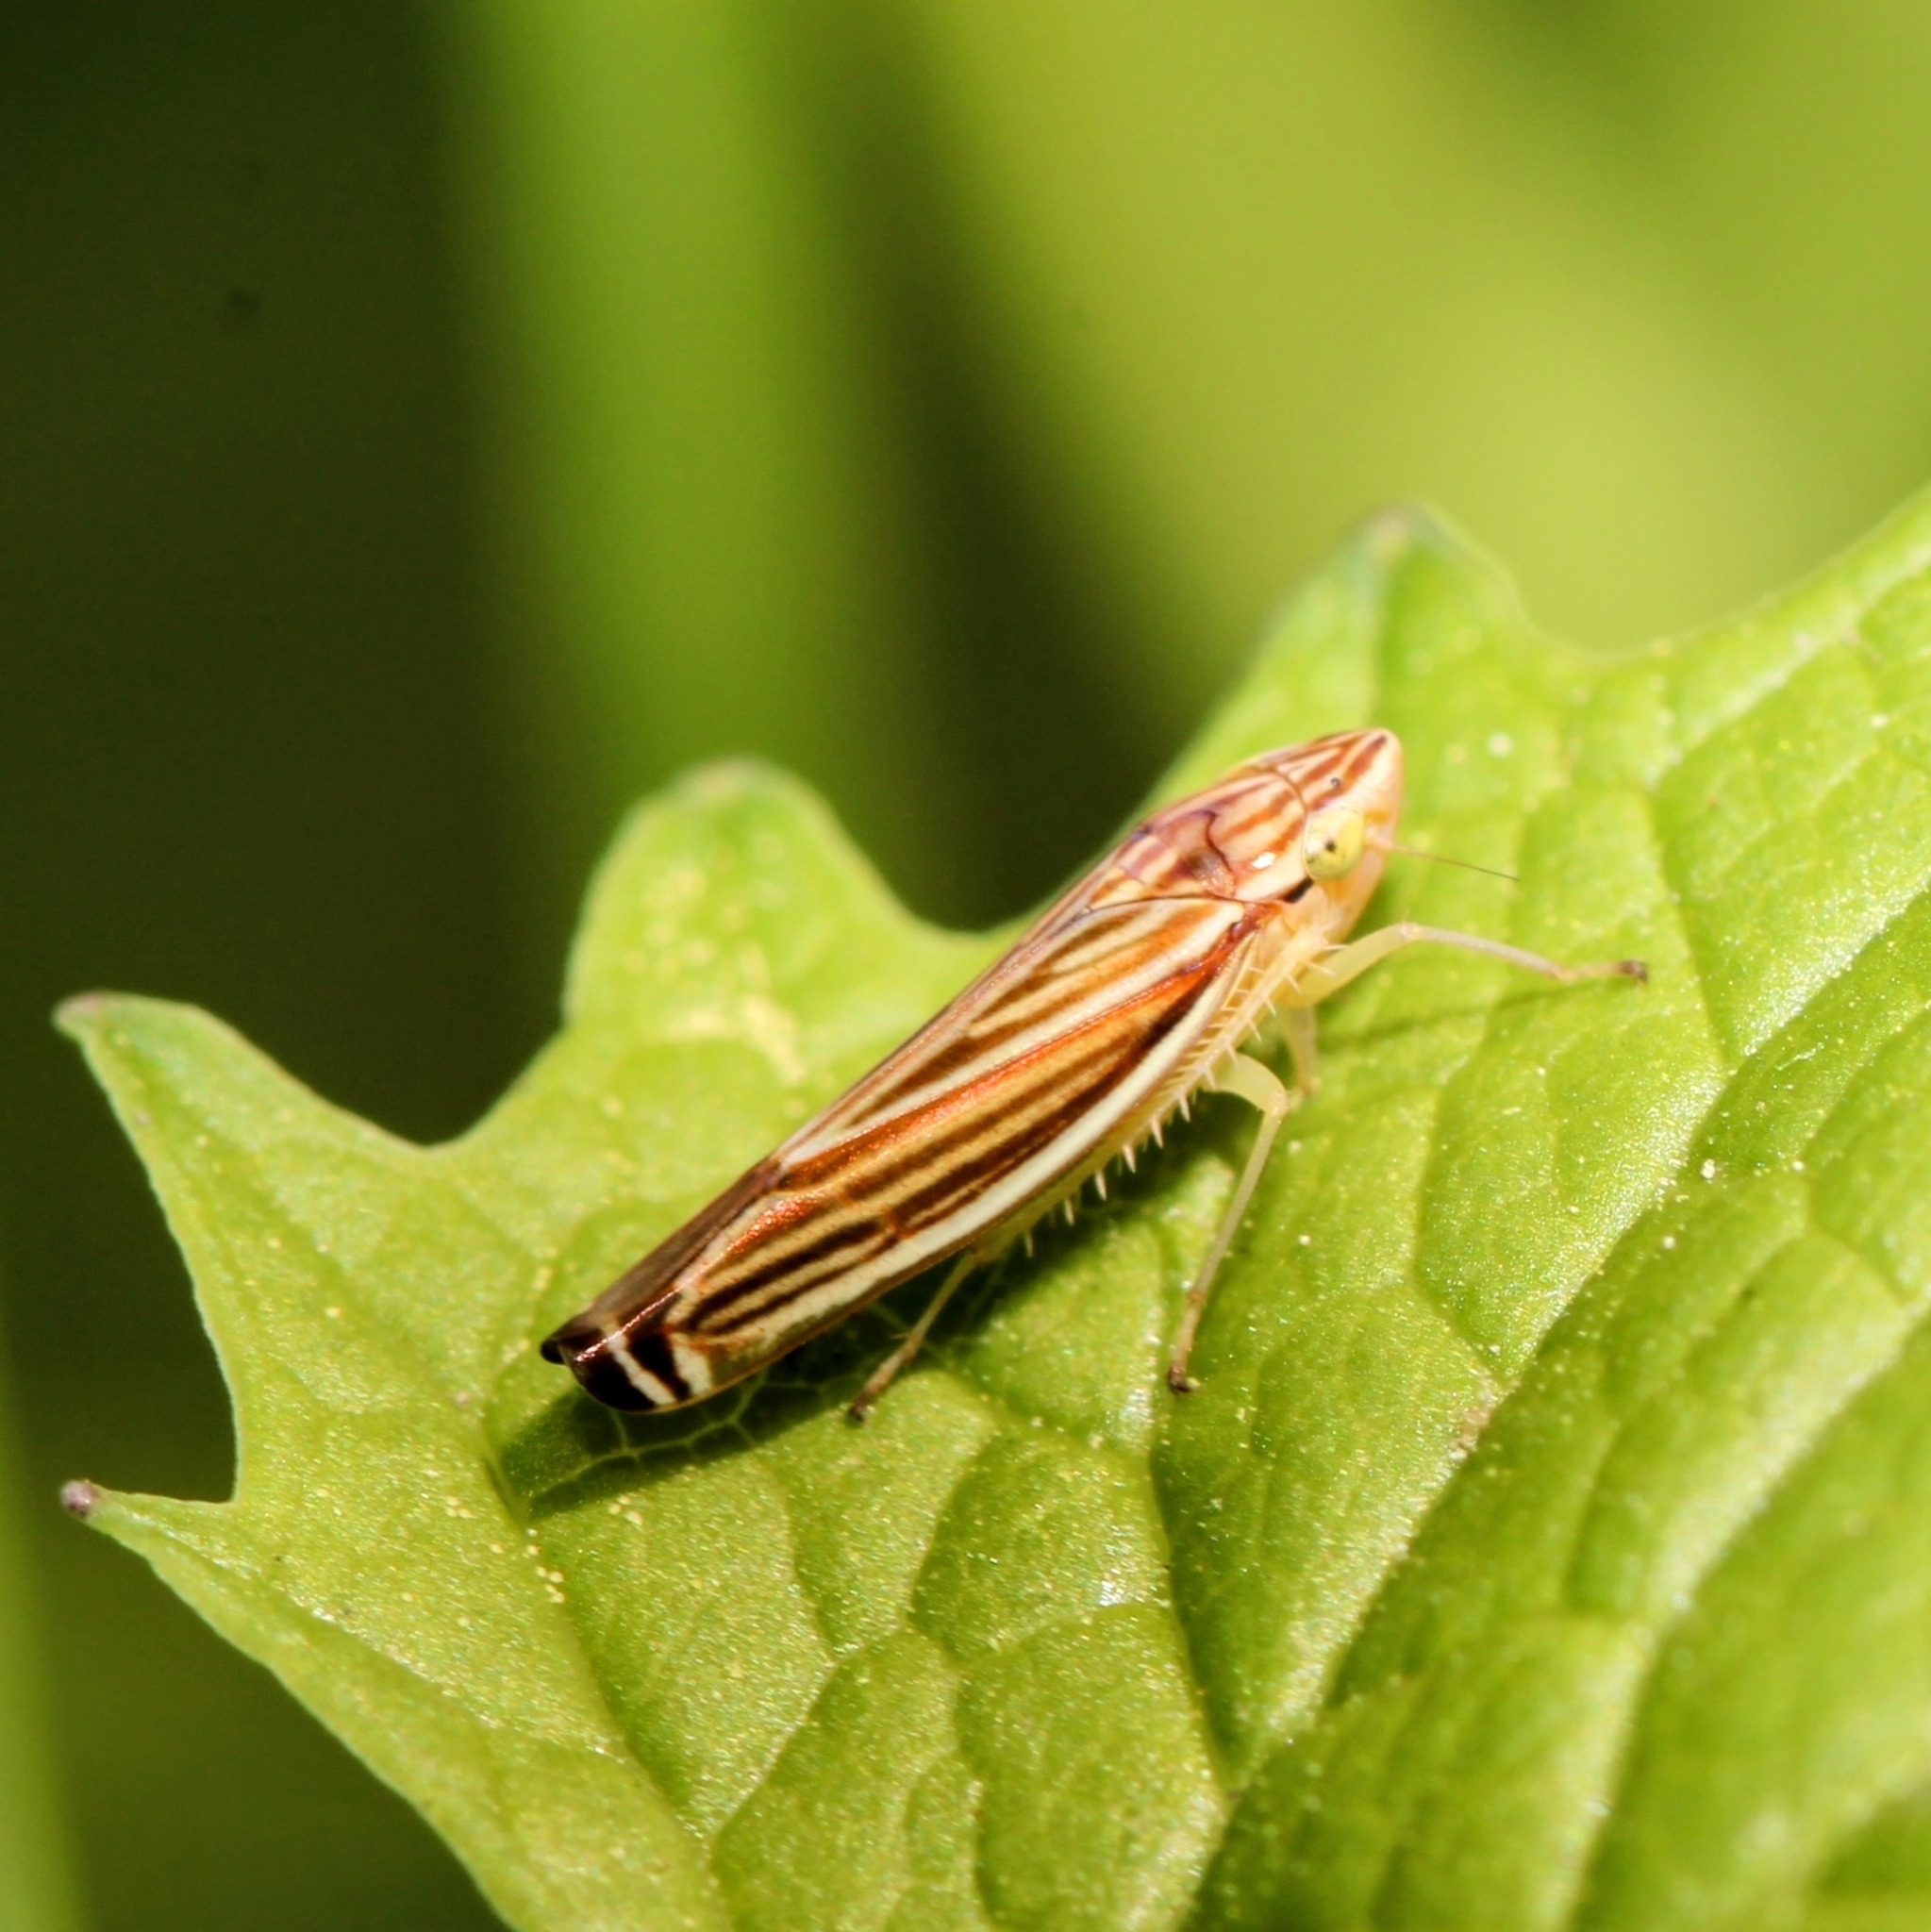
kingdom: Animalia
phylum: Arthropoda
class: Insecta
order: Hemiptera
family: Cicadellidae
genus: Sibovia
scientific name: Sibovia occatoria
